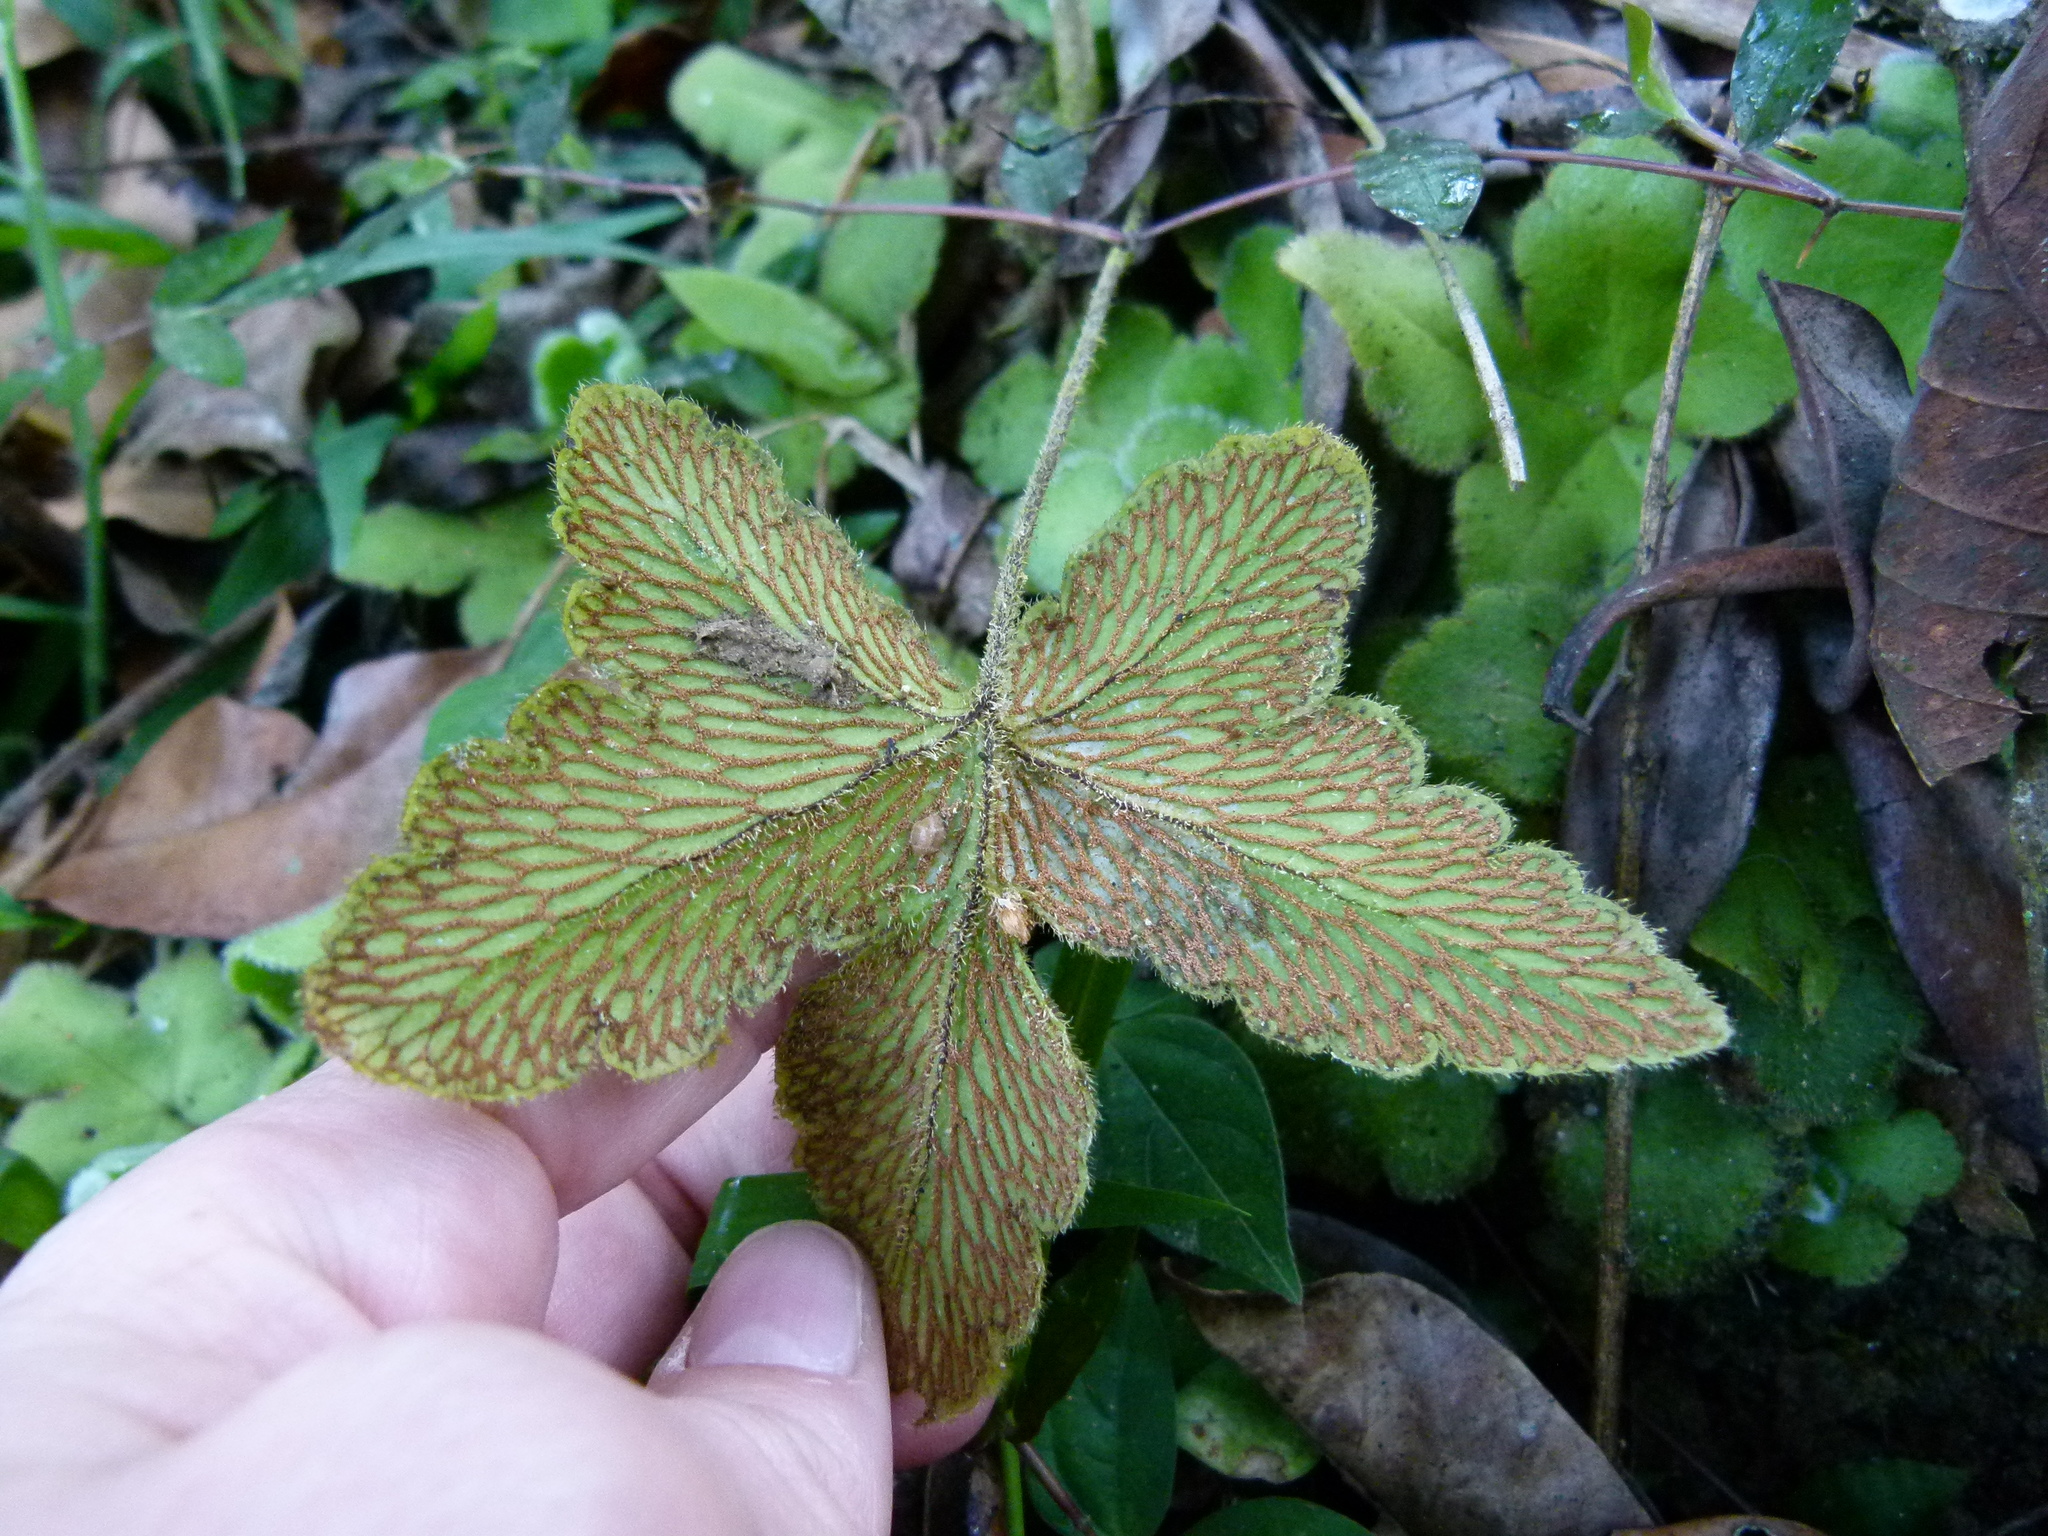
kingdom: Plantae
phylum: Tracheophyta
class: Polypodiopsida
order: Polypodiales
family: Pteridaceae
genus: Hemionitis
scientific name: Hemionitis palmata
